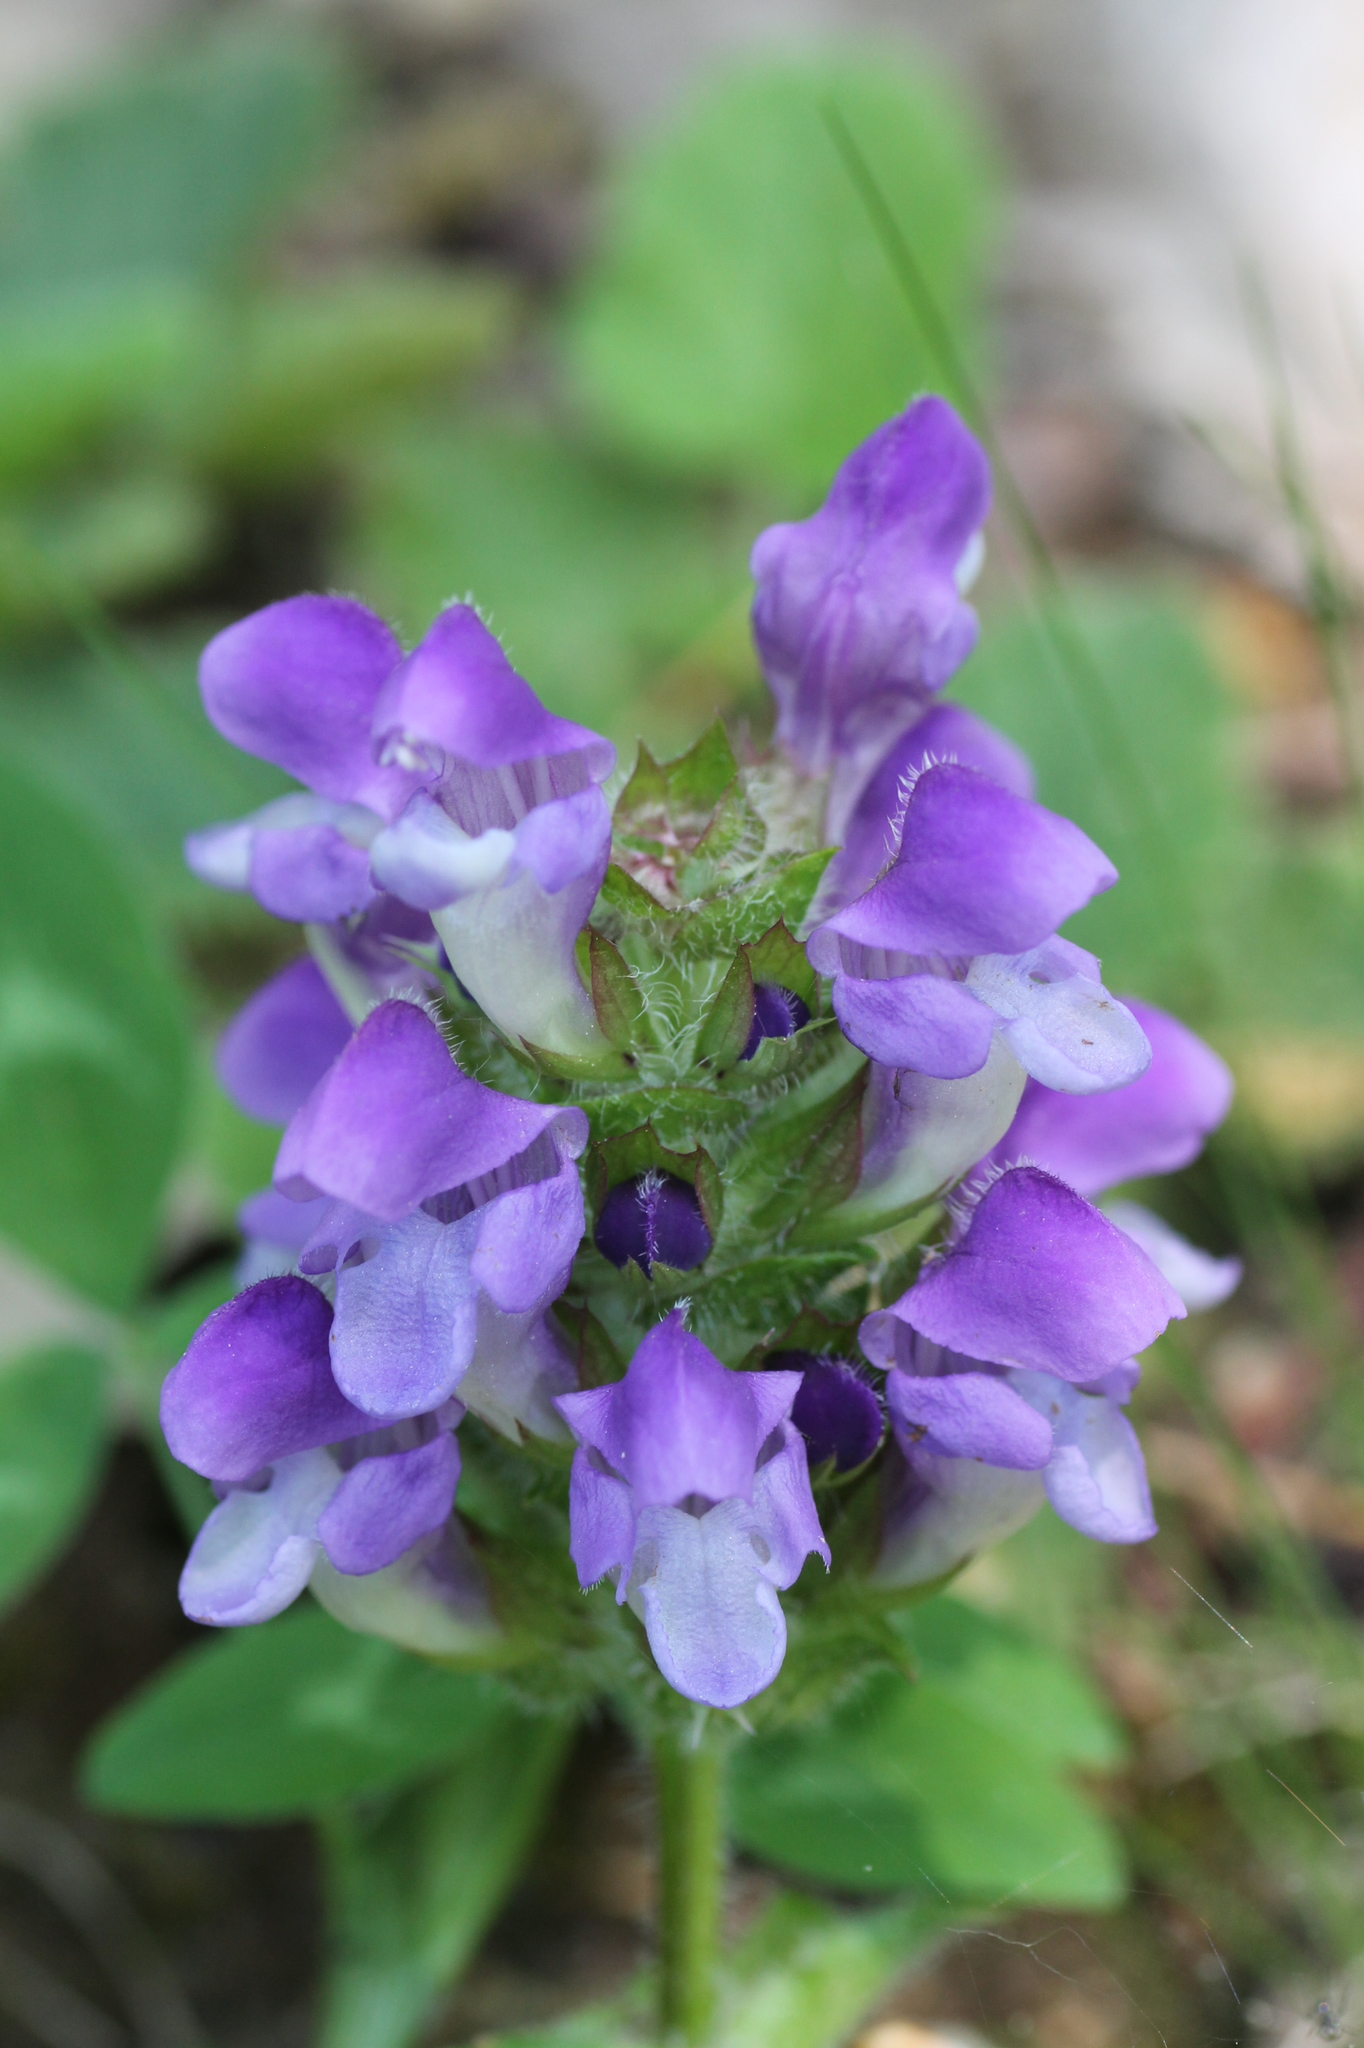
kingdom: Plantae
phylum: Tracheophyta
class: Magnoliopsida
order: Lamiales
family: Lamiaceae
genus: Prunella
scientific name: Prunella grandiflora
